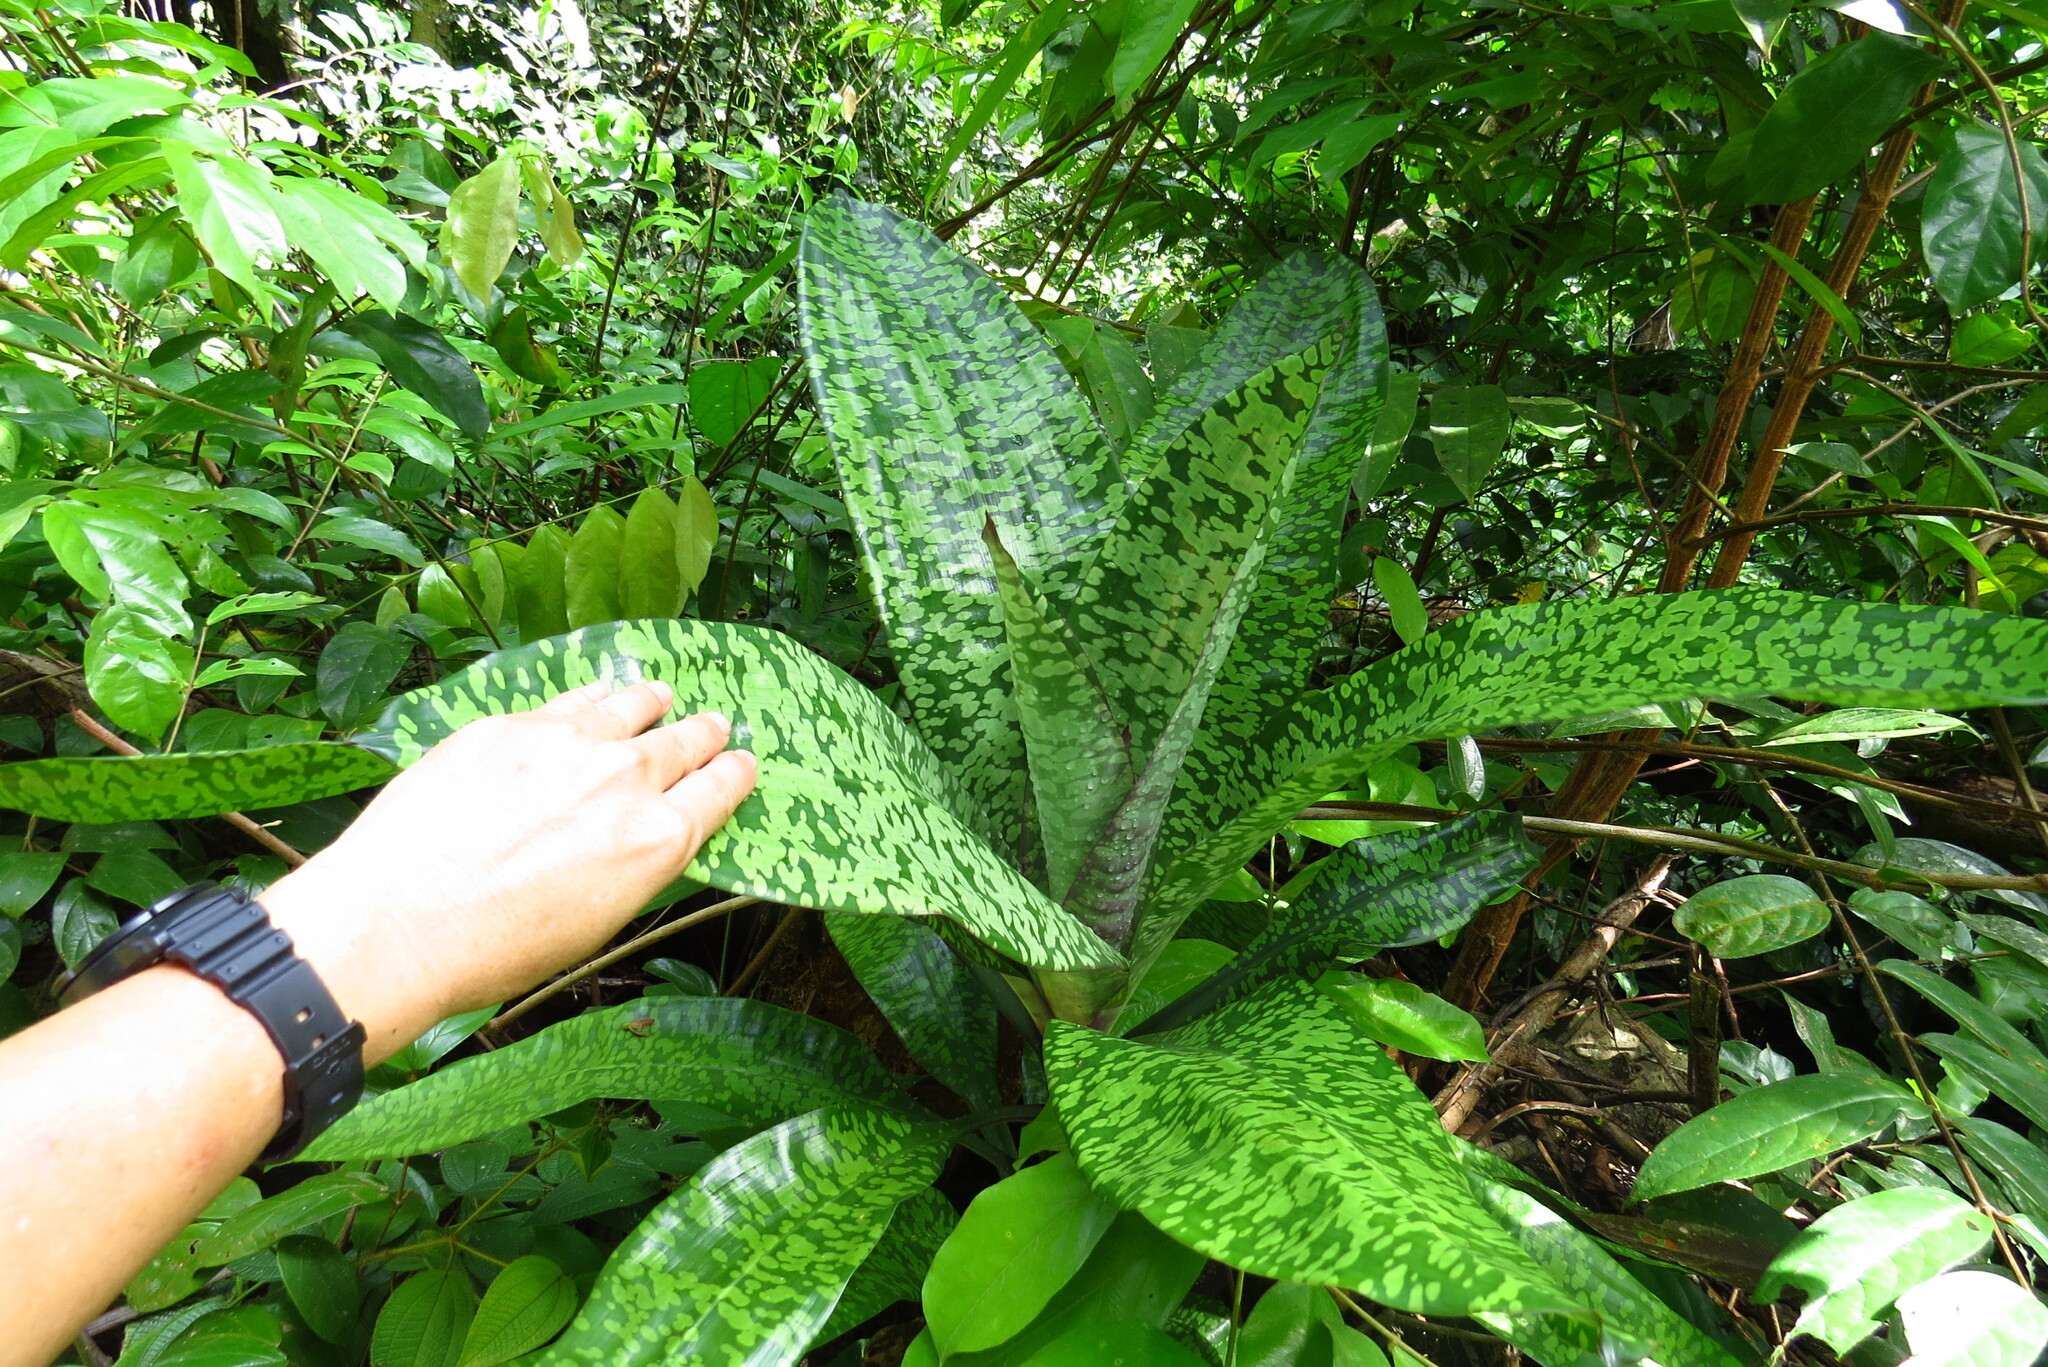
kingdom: Plantae
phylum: Tracheophyta
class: Liliopsida
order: Asparagales
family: Asparagaceae
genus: Dracaena
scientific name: Dracaena cantleyi
